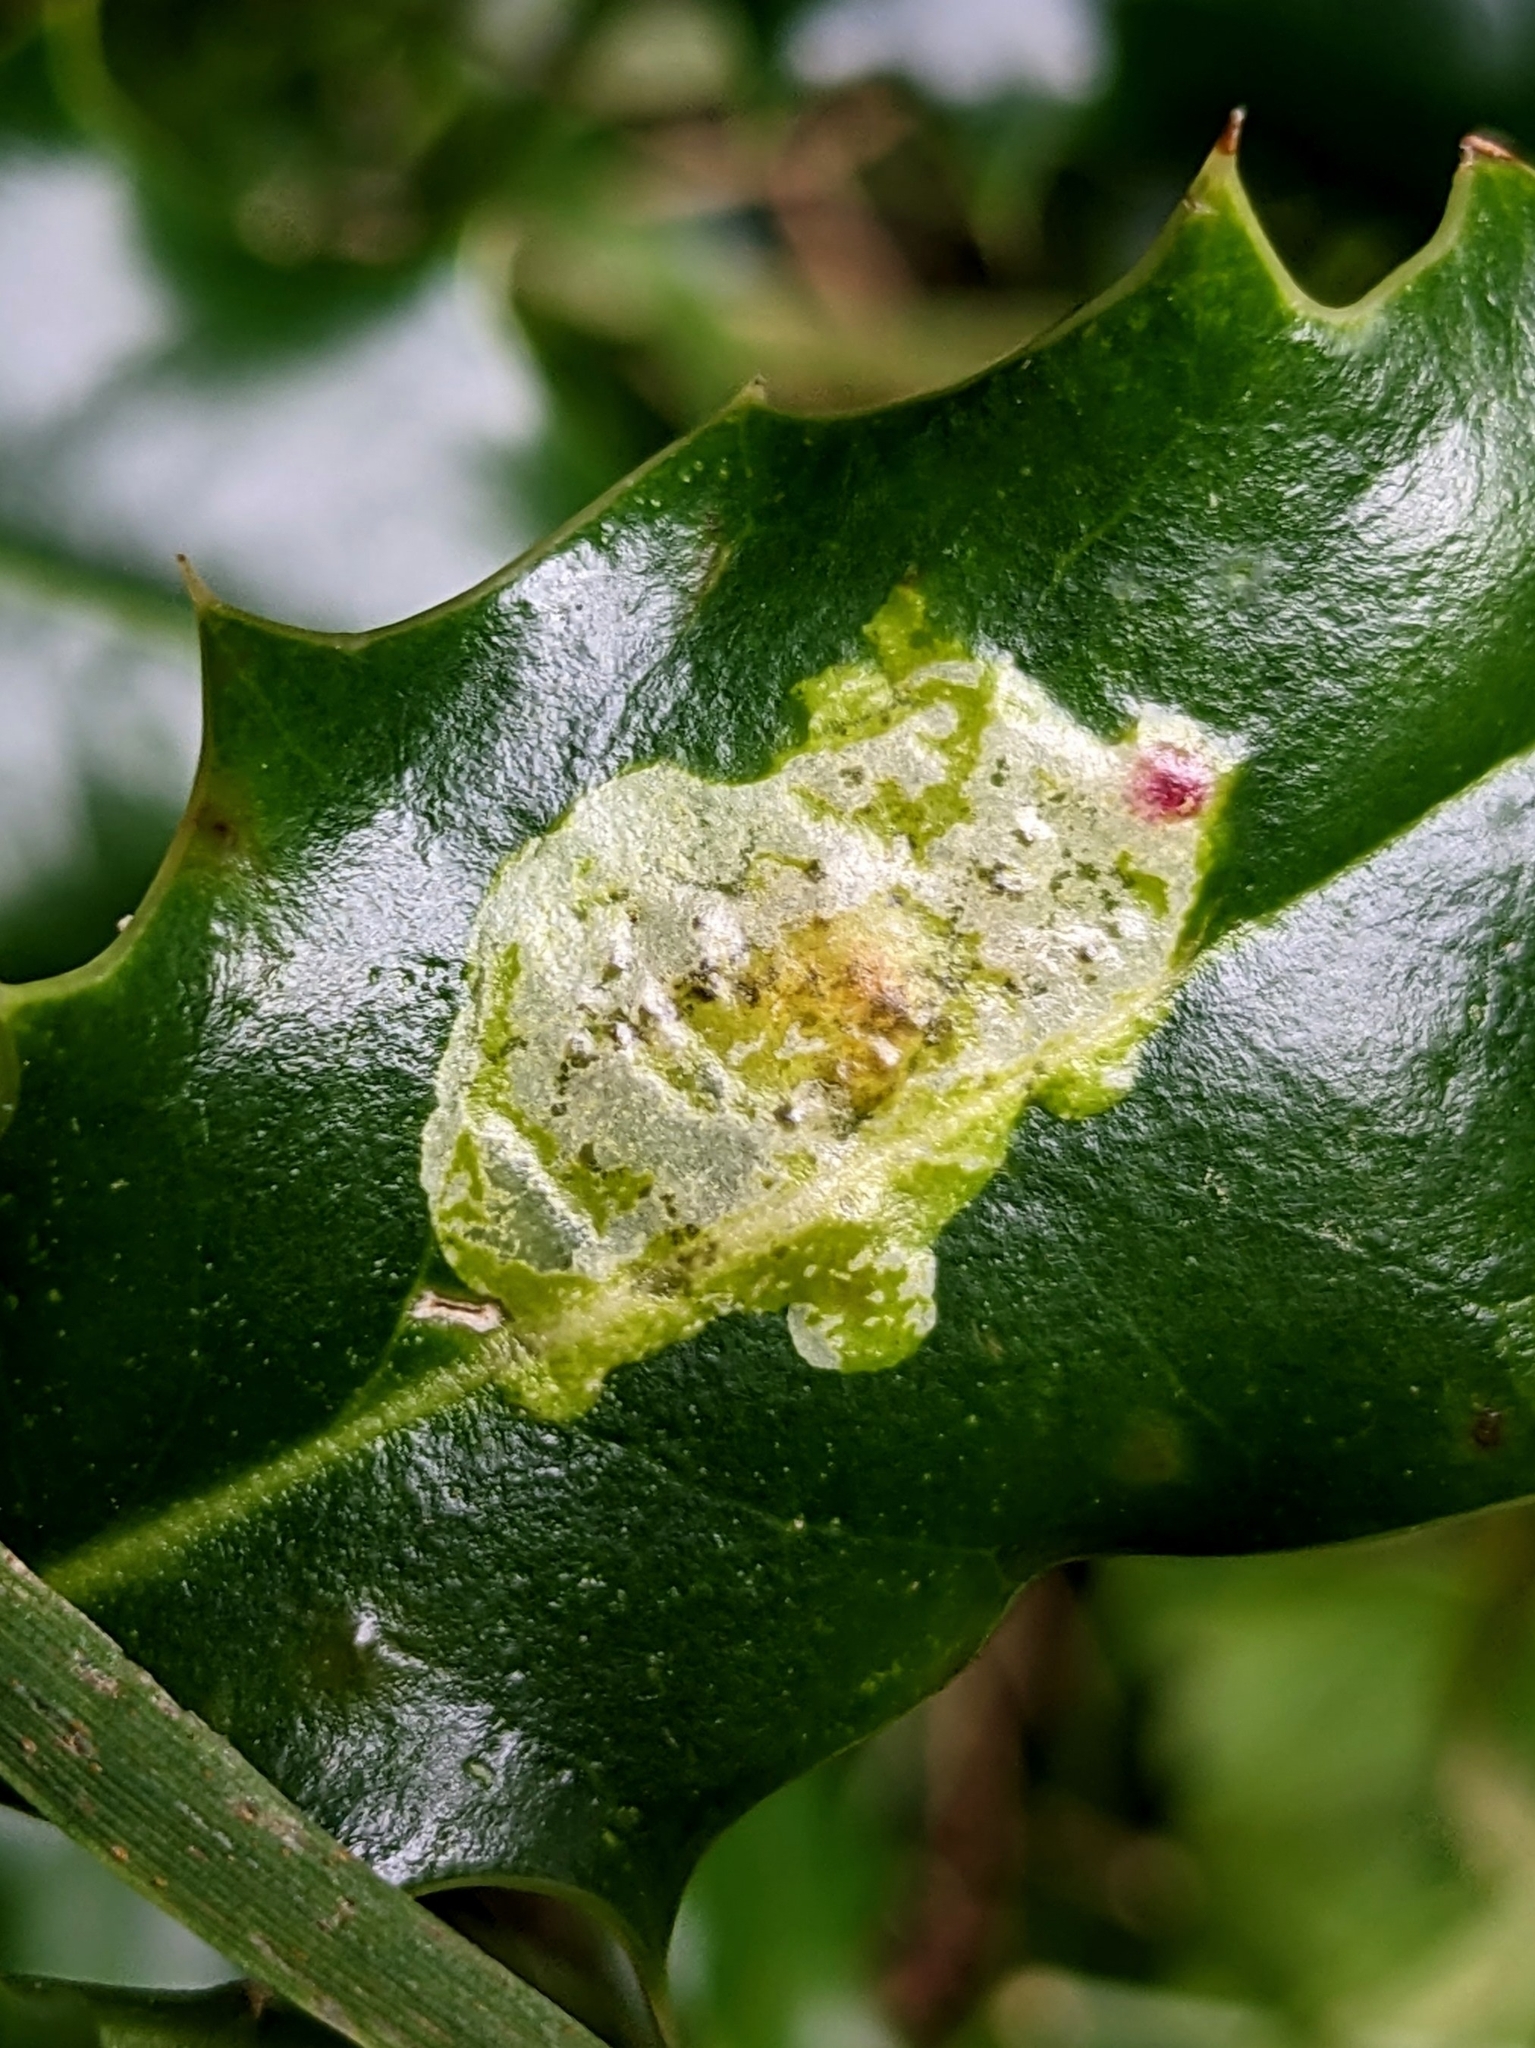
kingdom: Animalia
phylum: Arthropoda
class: Insecta
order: Diptera
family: Agromyzidae
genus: Phytomyza
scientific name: Phytomyza ilicis
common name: Holly leafminer
